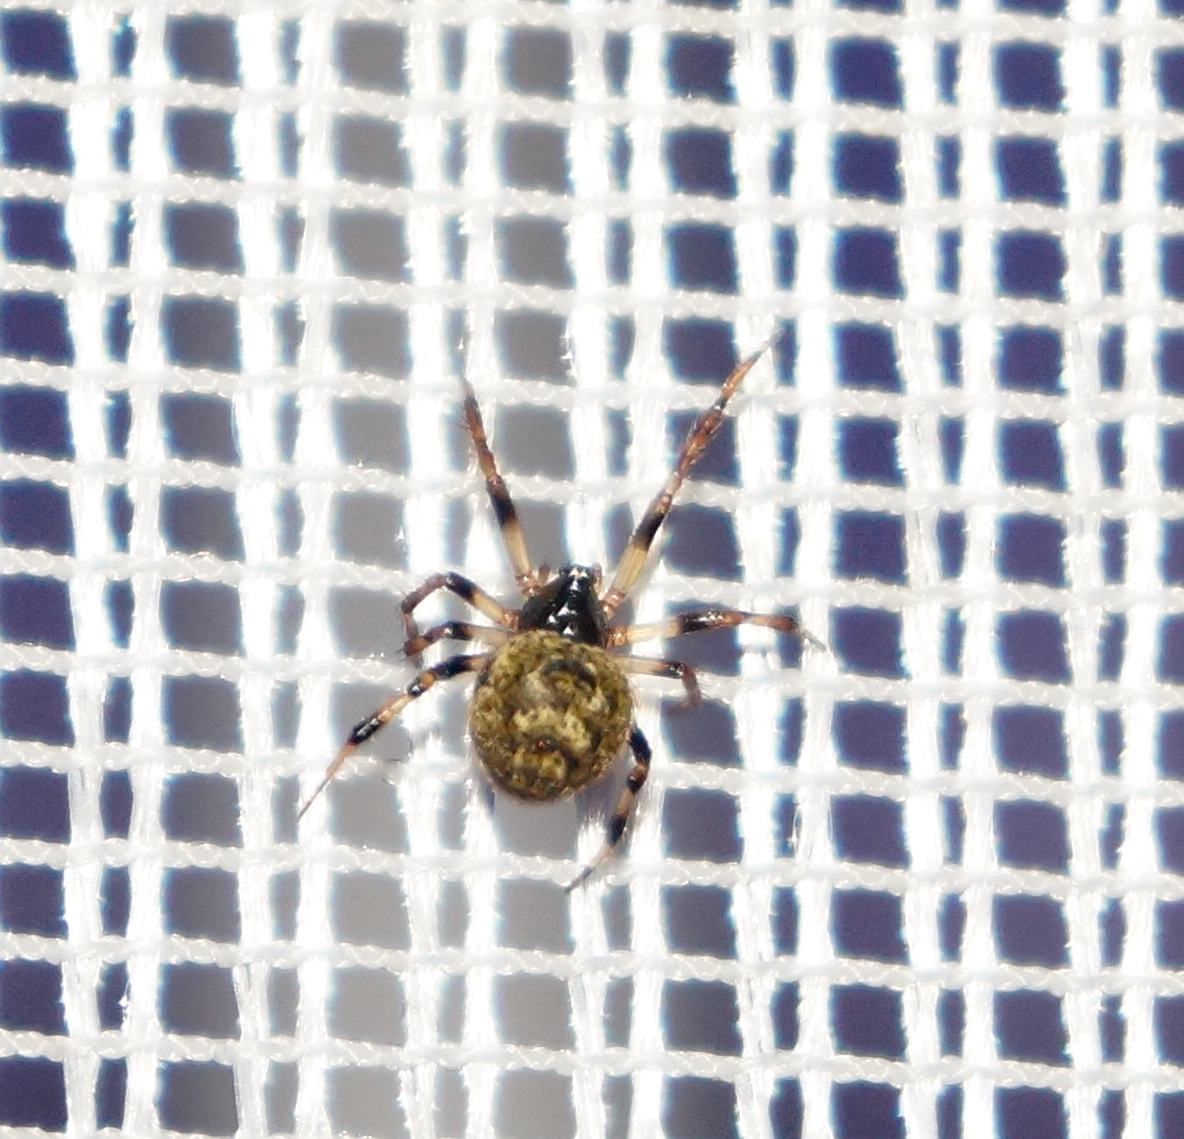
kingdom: Animalia
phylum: Arthropoda
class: Arachnida
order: Araneae
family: Theridiidae
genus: Dipoena
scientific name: Dipoena melanogaster
